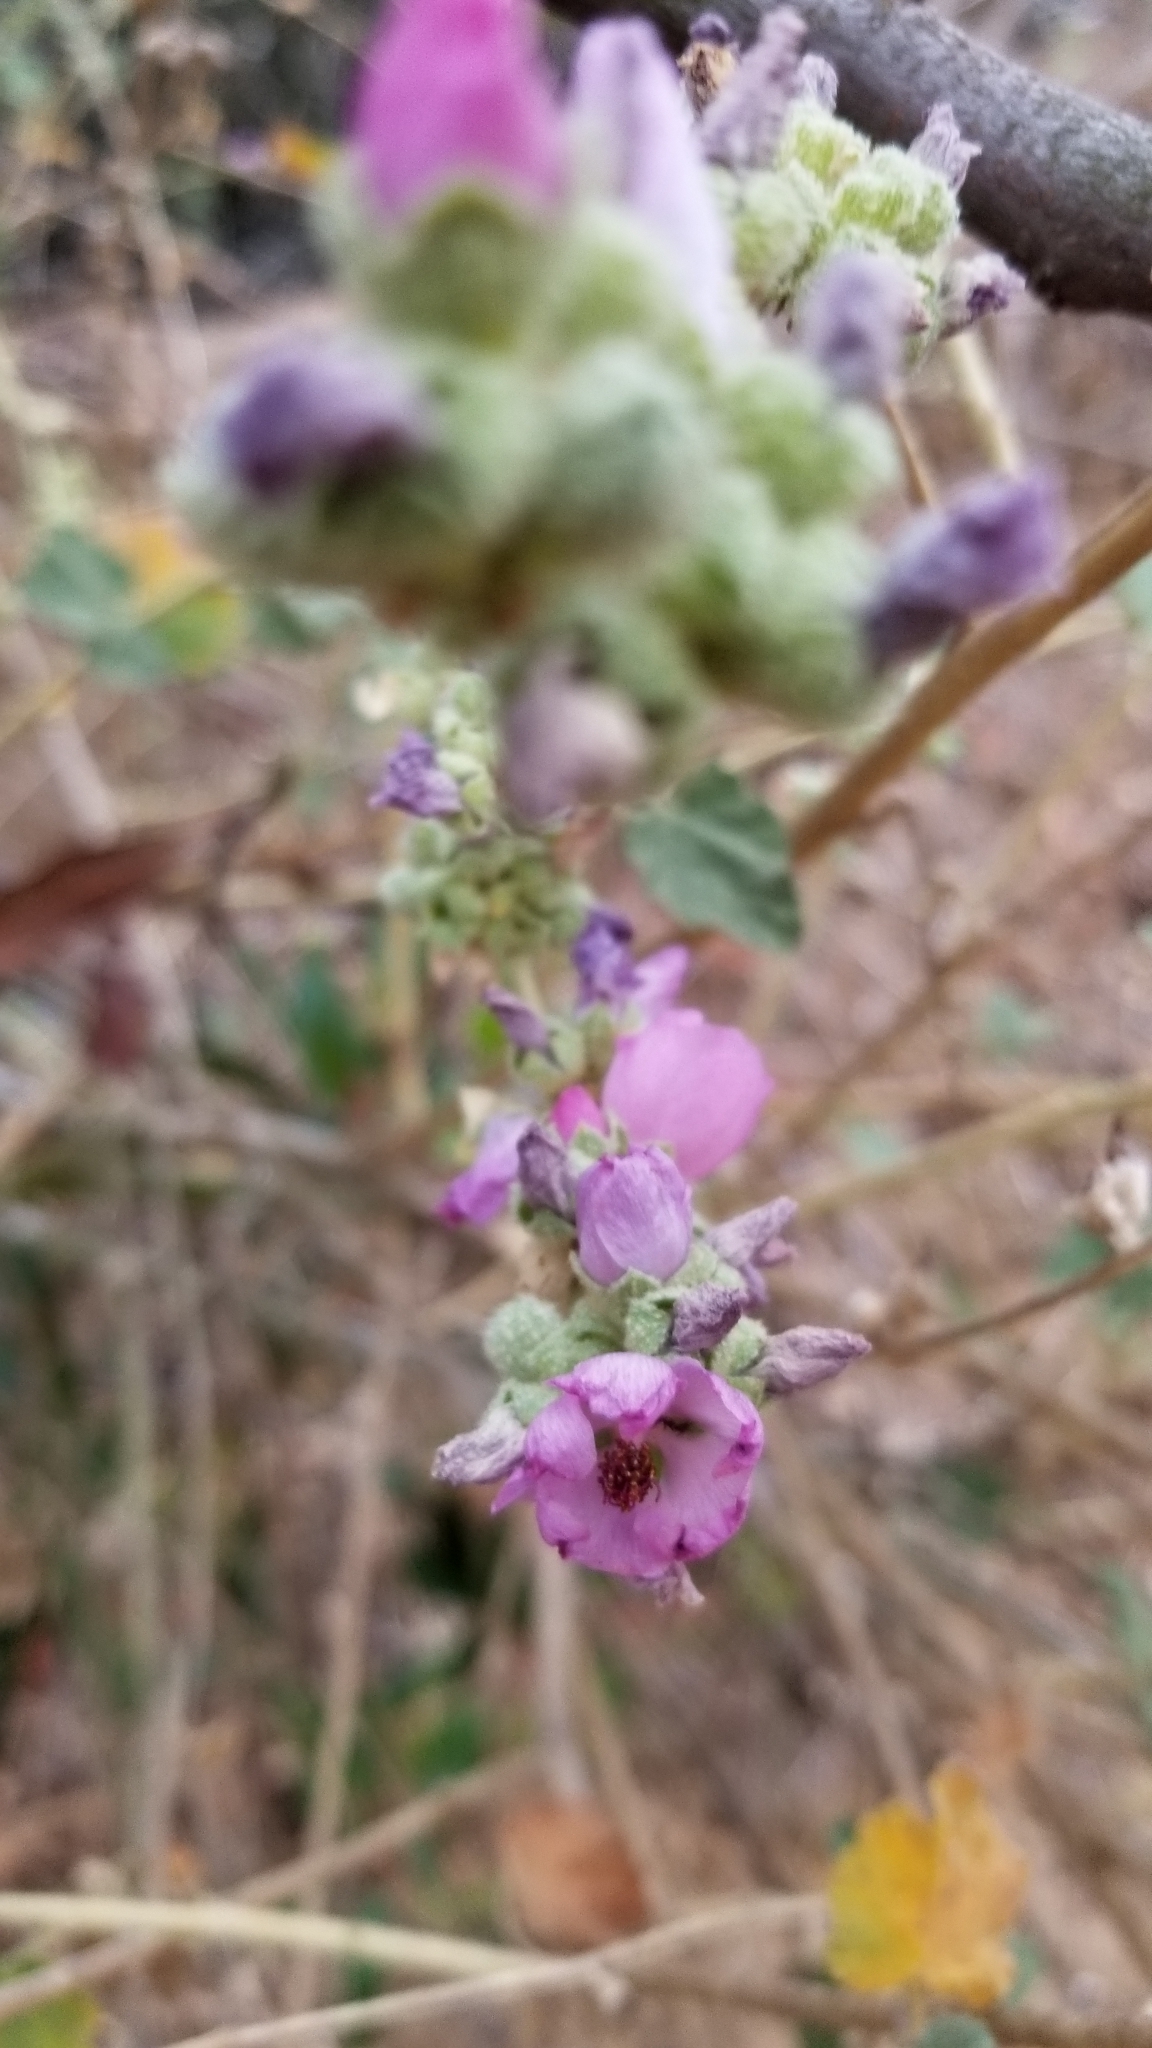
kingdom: Plantae
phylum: Tracheophyta
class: Magnoliopsida
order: Malvales
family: Malvaceae
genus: Malacothamnus
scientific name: Malacothamnus fasciculatus
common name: Sant cruz island bush-mallow
